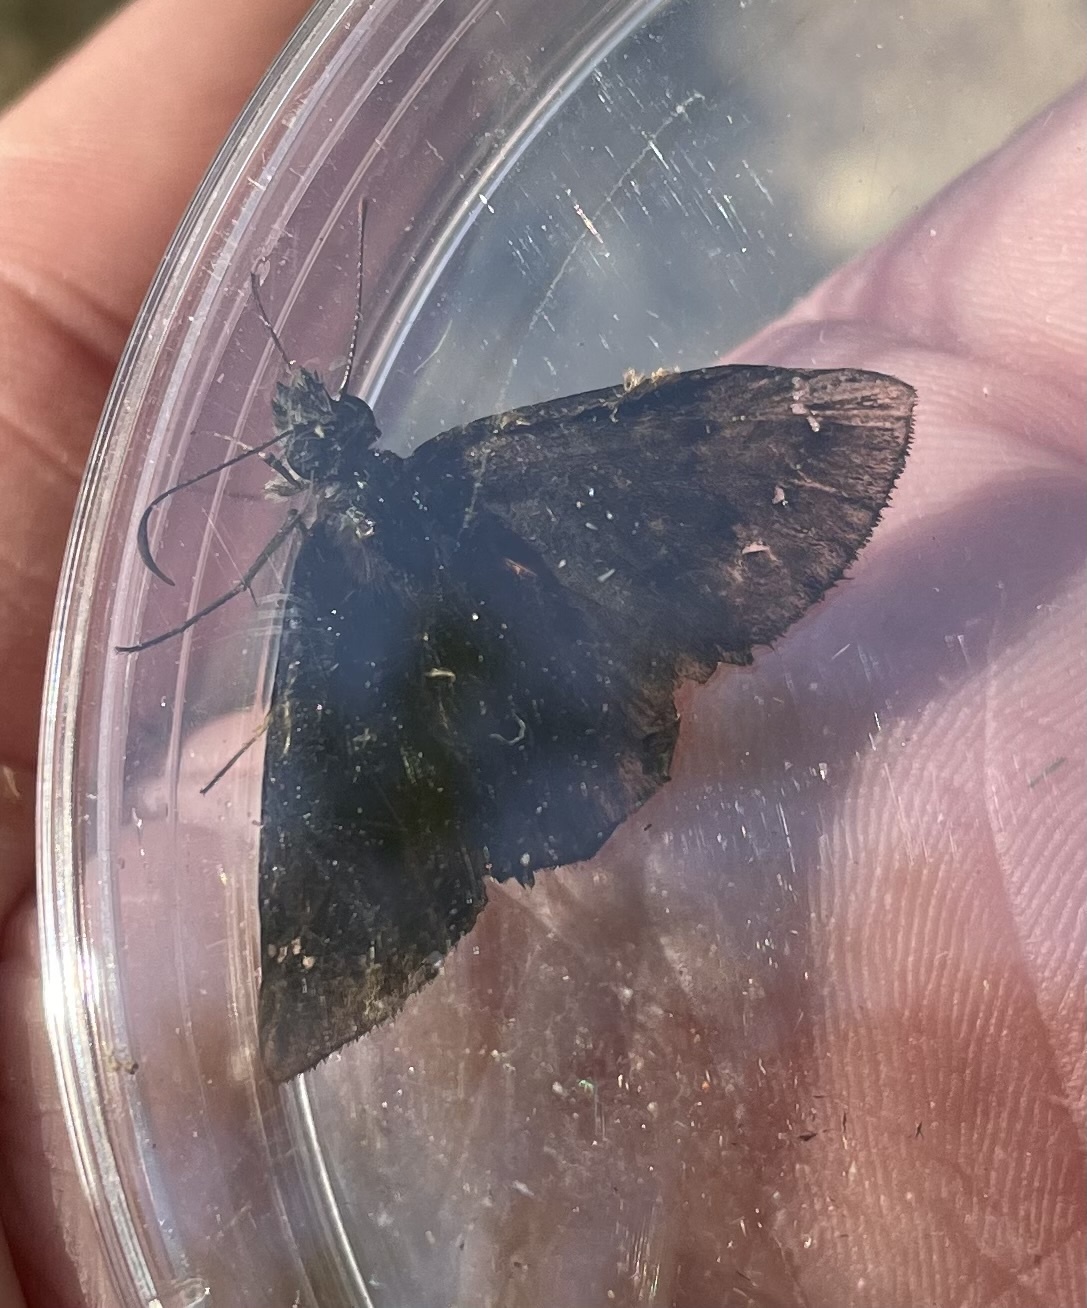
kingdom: Animalia
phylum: Arthropoda
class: Insecta
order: Lepidoptera
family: Hesperiidae
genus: Erynnis
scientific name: Erynnis horatius
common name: Horace's duskywing
